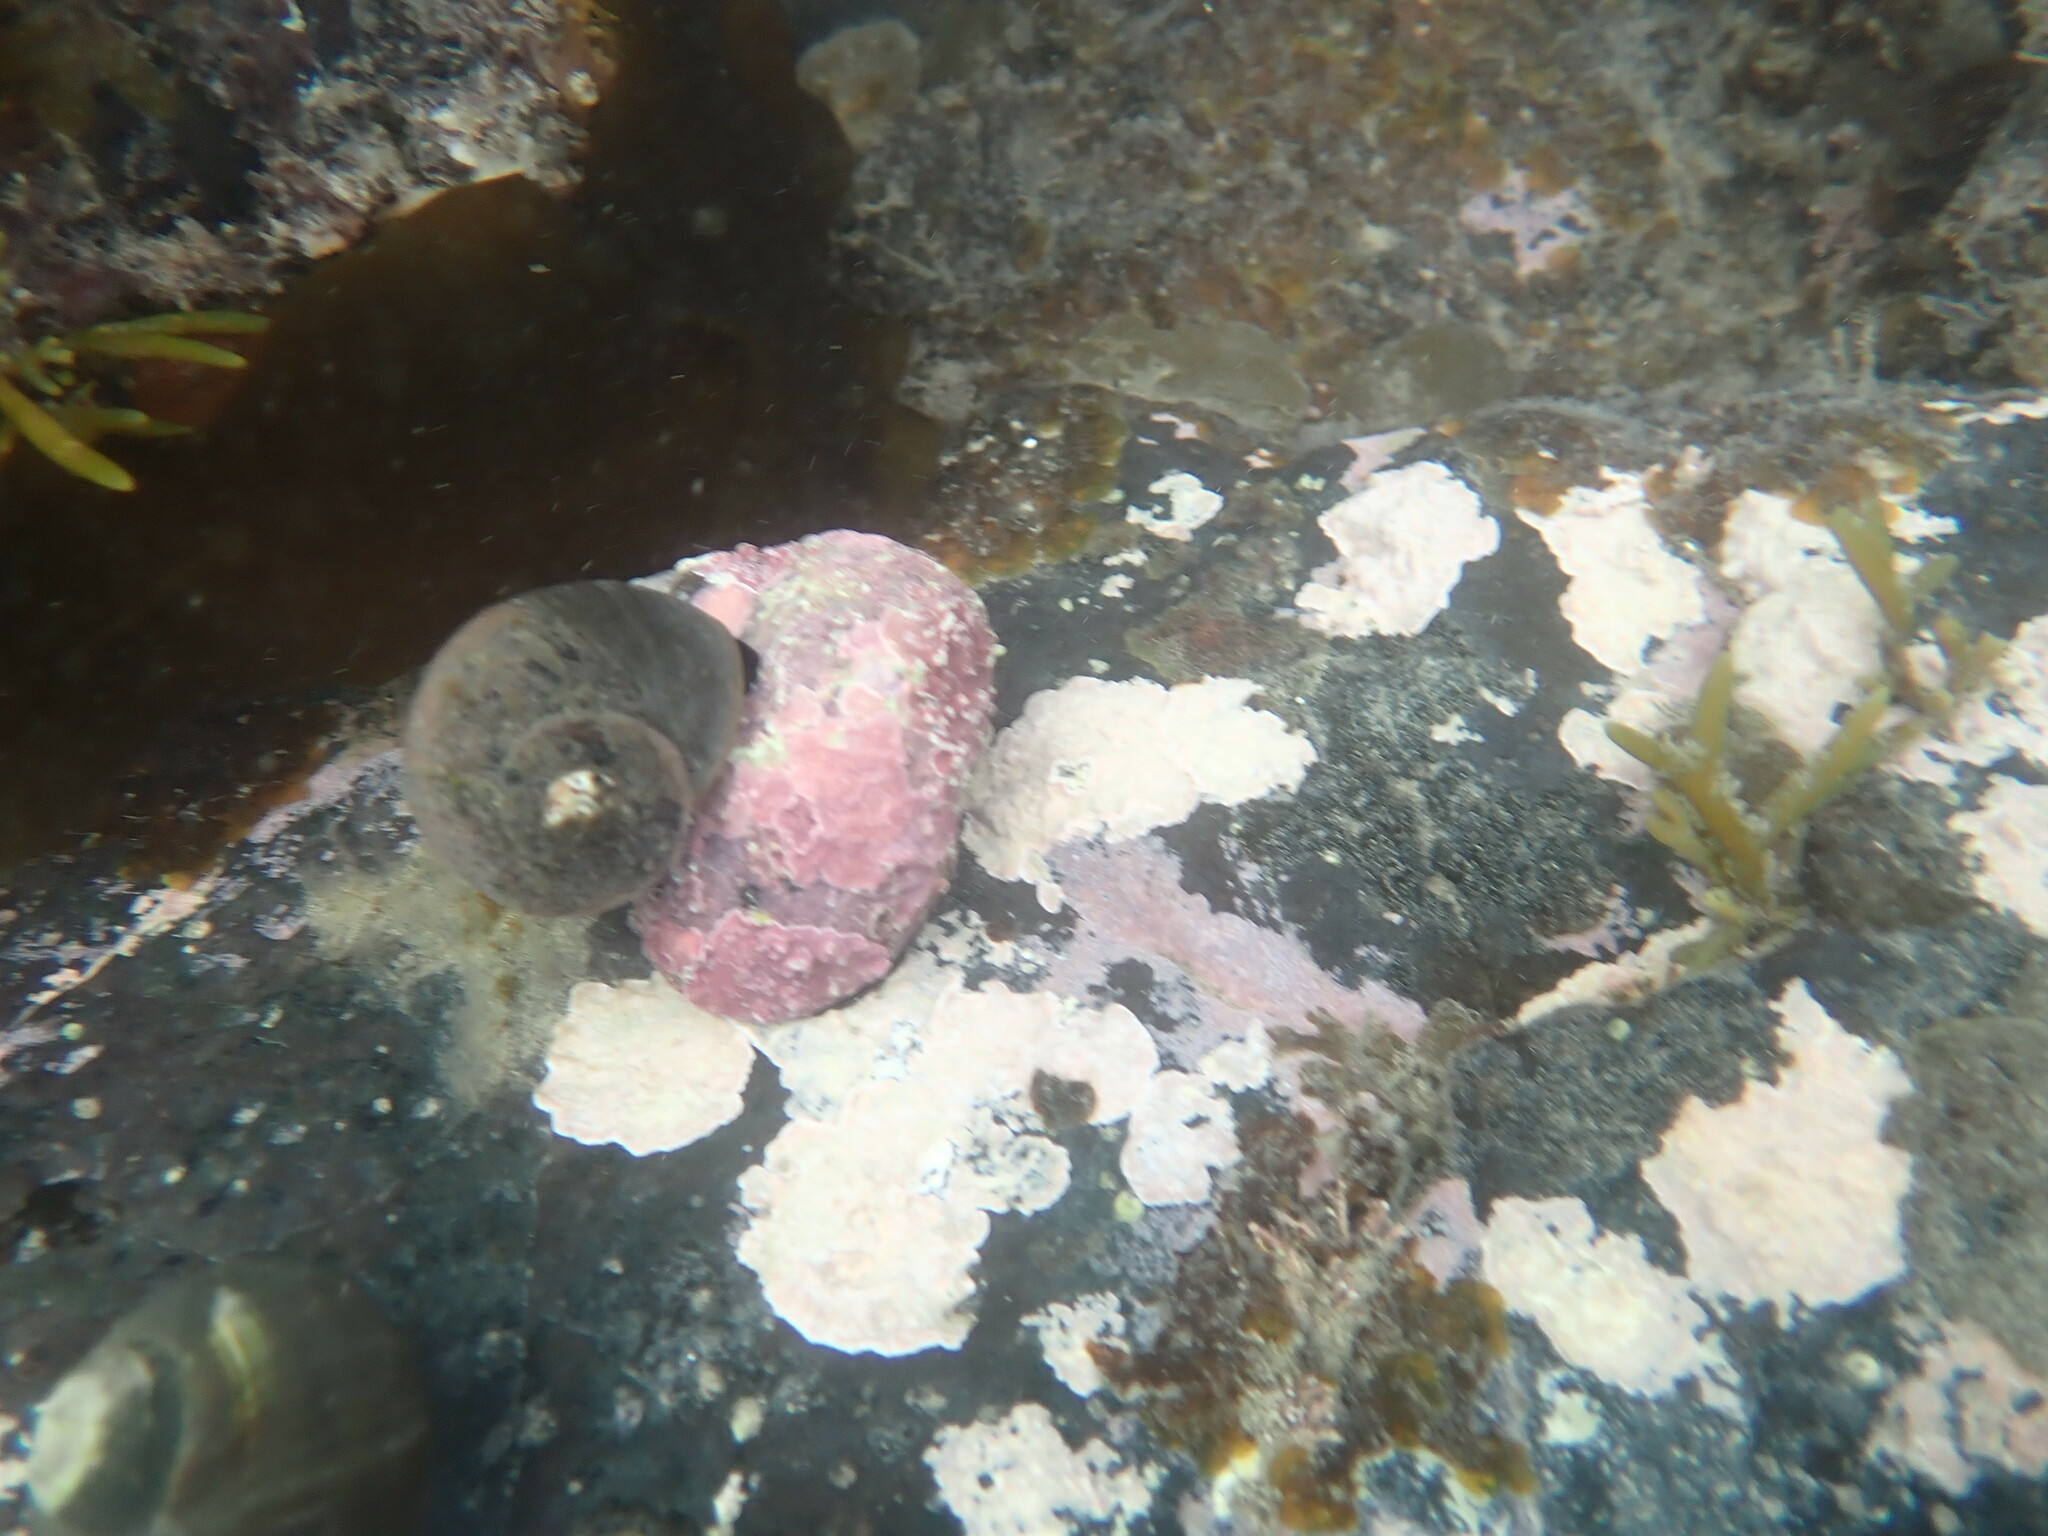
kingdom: Animalia
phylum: Mollusca
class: Gastropoda
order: Trochida
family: Turbinidae
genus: Lunella
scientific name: Lunella smaragda
